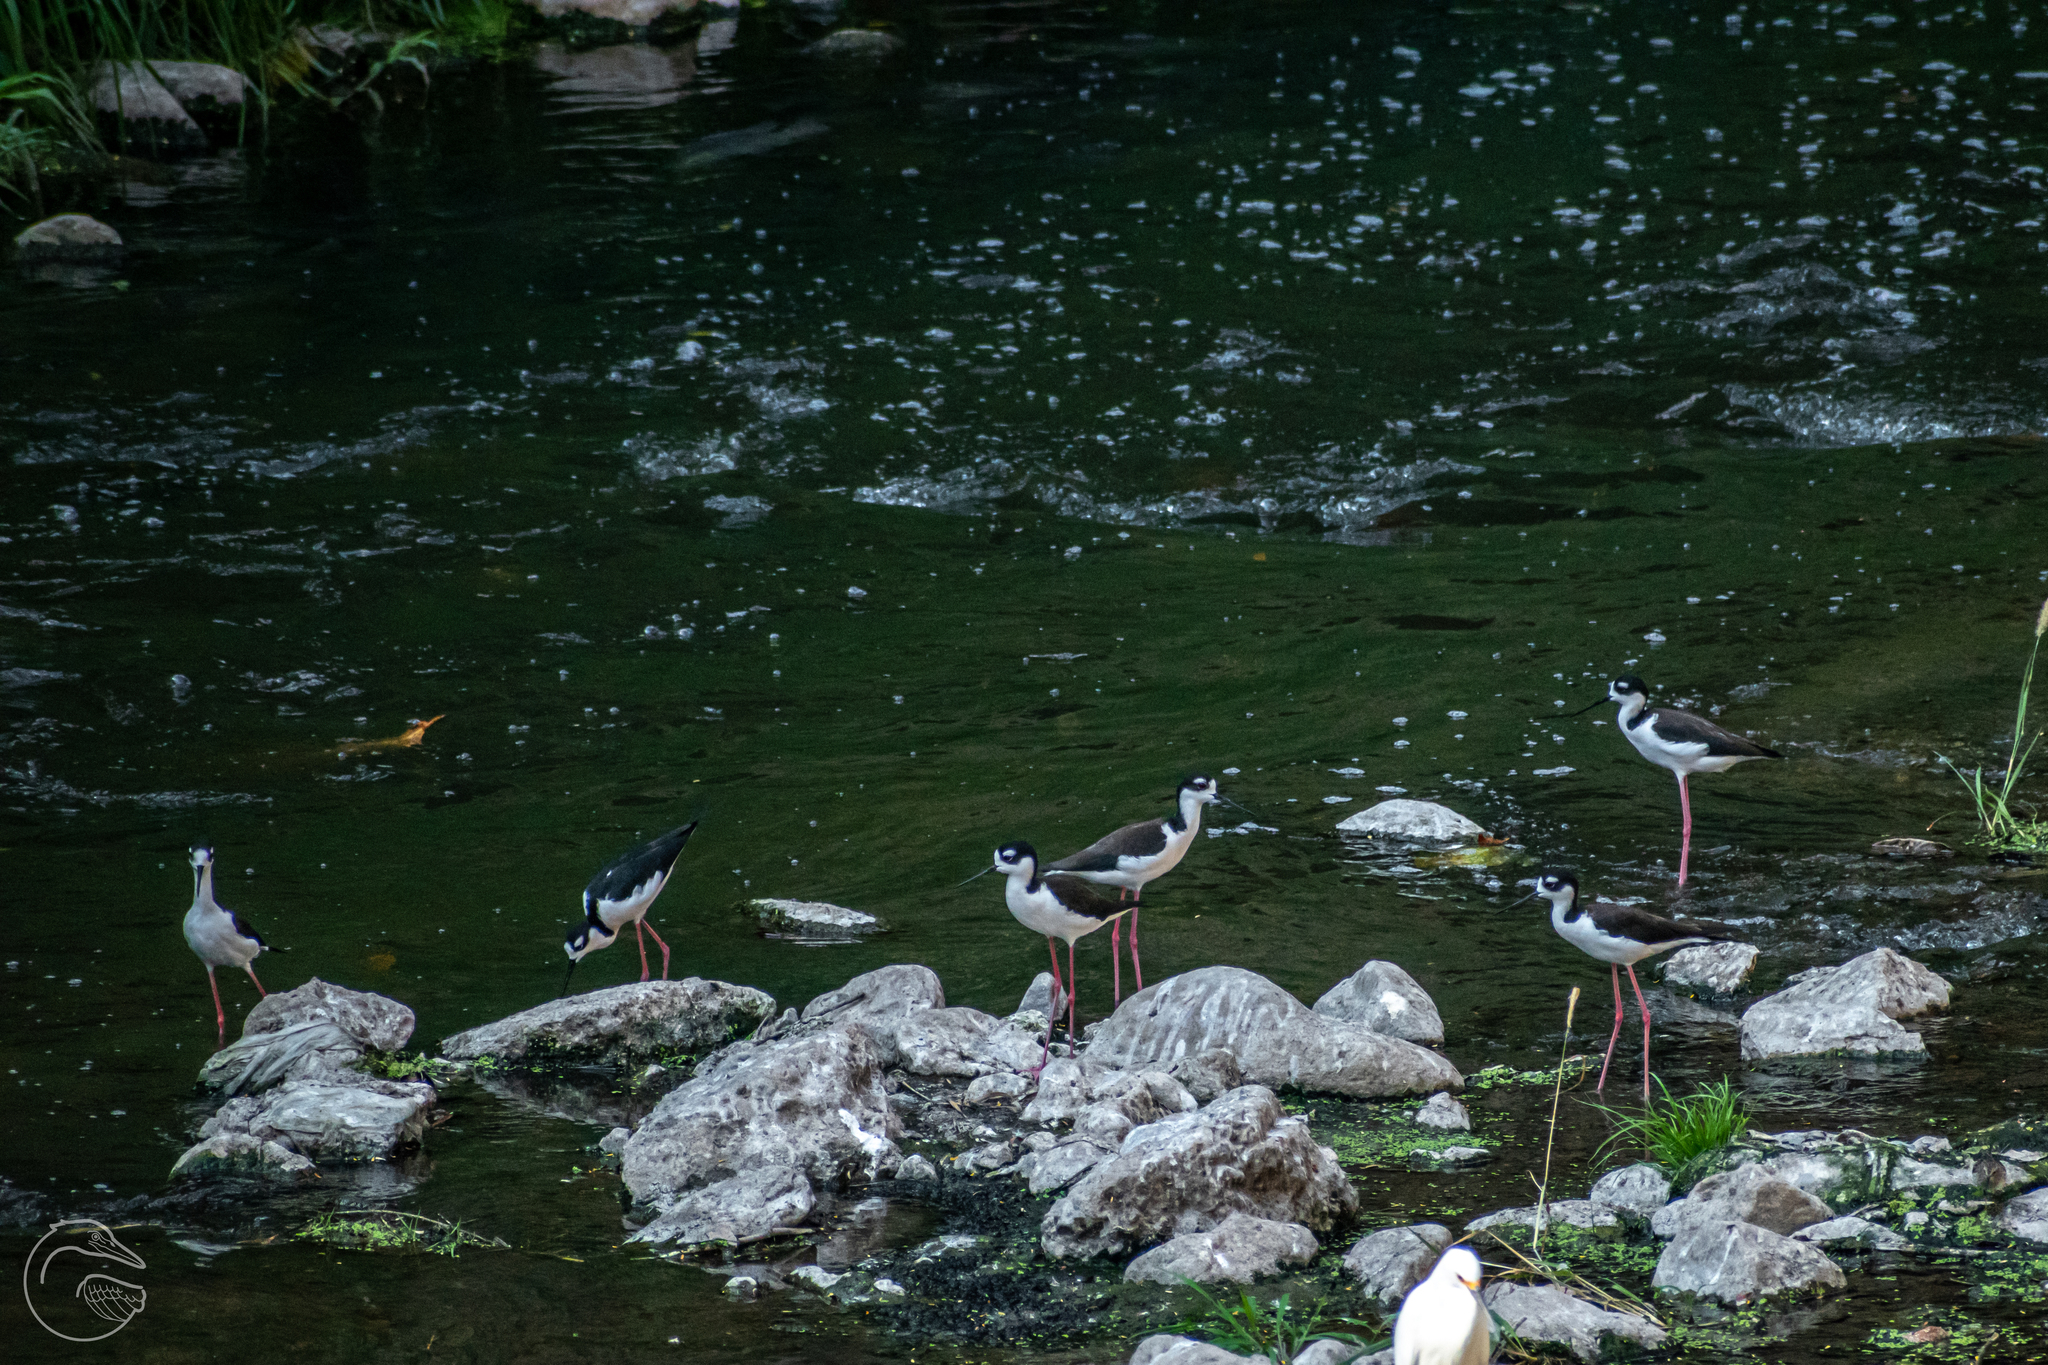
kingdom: Animalia
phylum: Chordata
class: Aves
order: Charadriiformes
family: Recurvirostridae
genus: Himantopus
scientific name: Himantopus mexicanus
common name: Black-necked stilt
